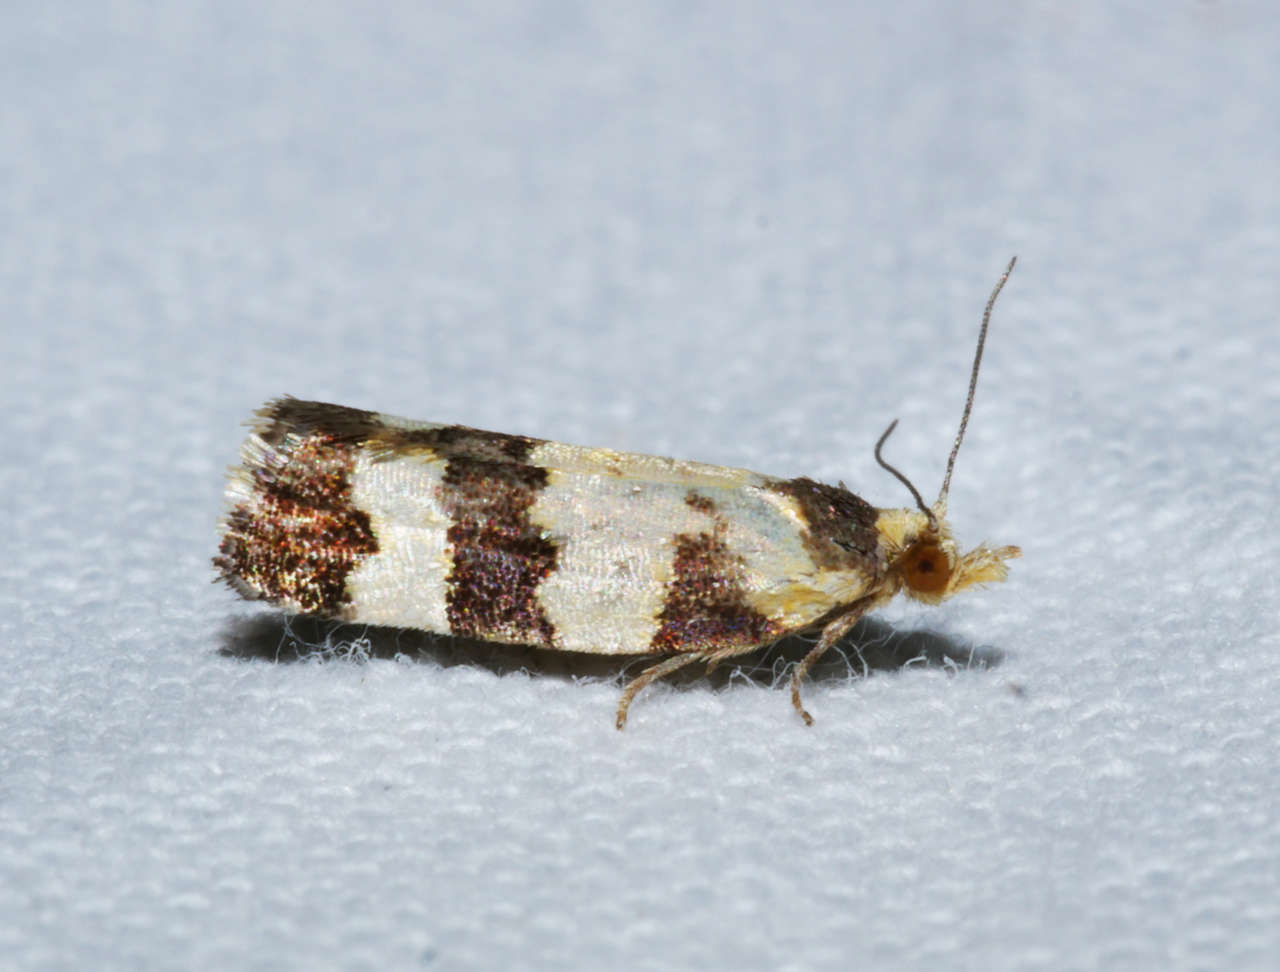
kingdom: Animalia
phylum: Arthropoda
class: Insecta
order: Lepidoptera
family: Tortricidae
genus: Conchylis
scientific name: Conchylis tasmaniana
